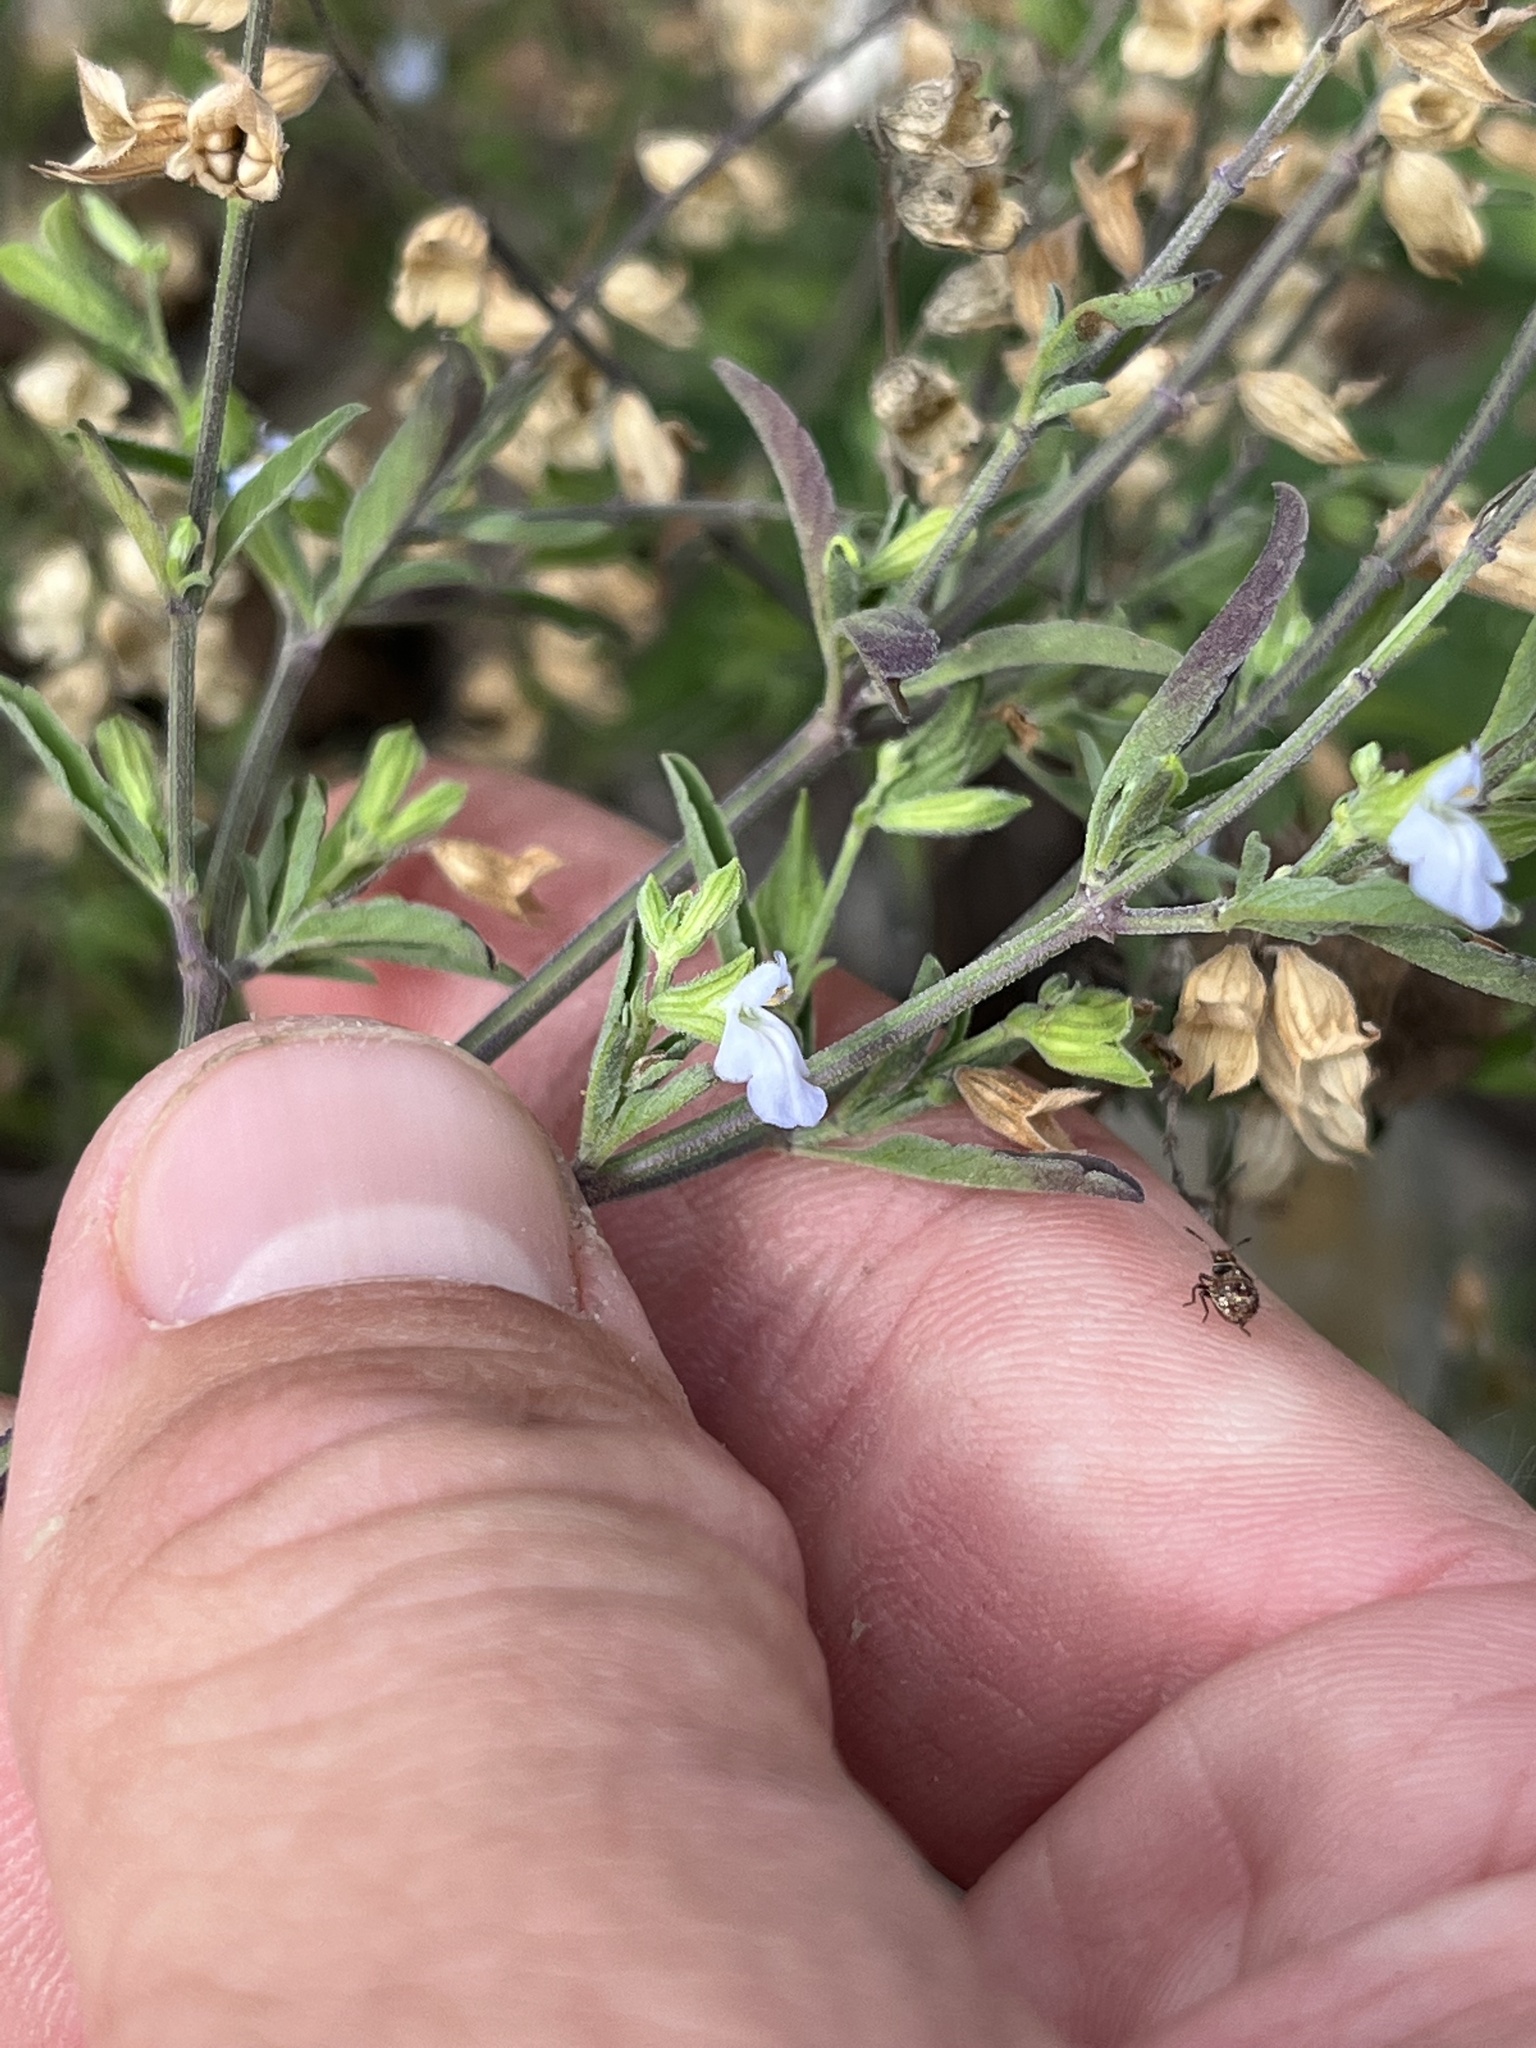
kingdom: Plantae
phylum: Tracheophyta
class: Magnoliopsida
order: Lamiales
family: Lamiaceae
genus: Salvia
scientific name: Salvia reflexa
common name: Mintweed
